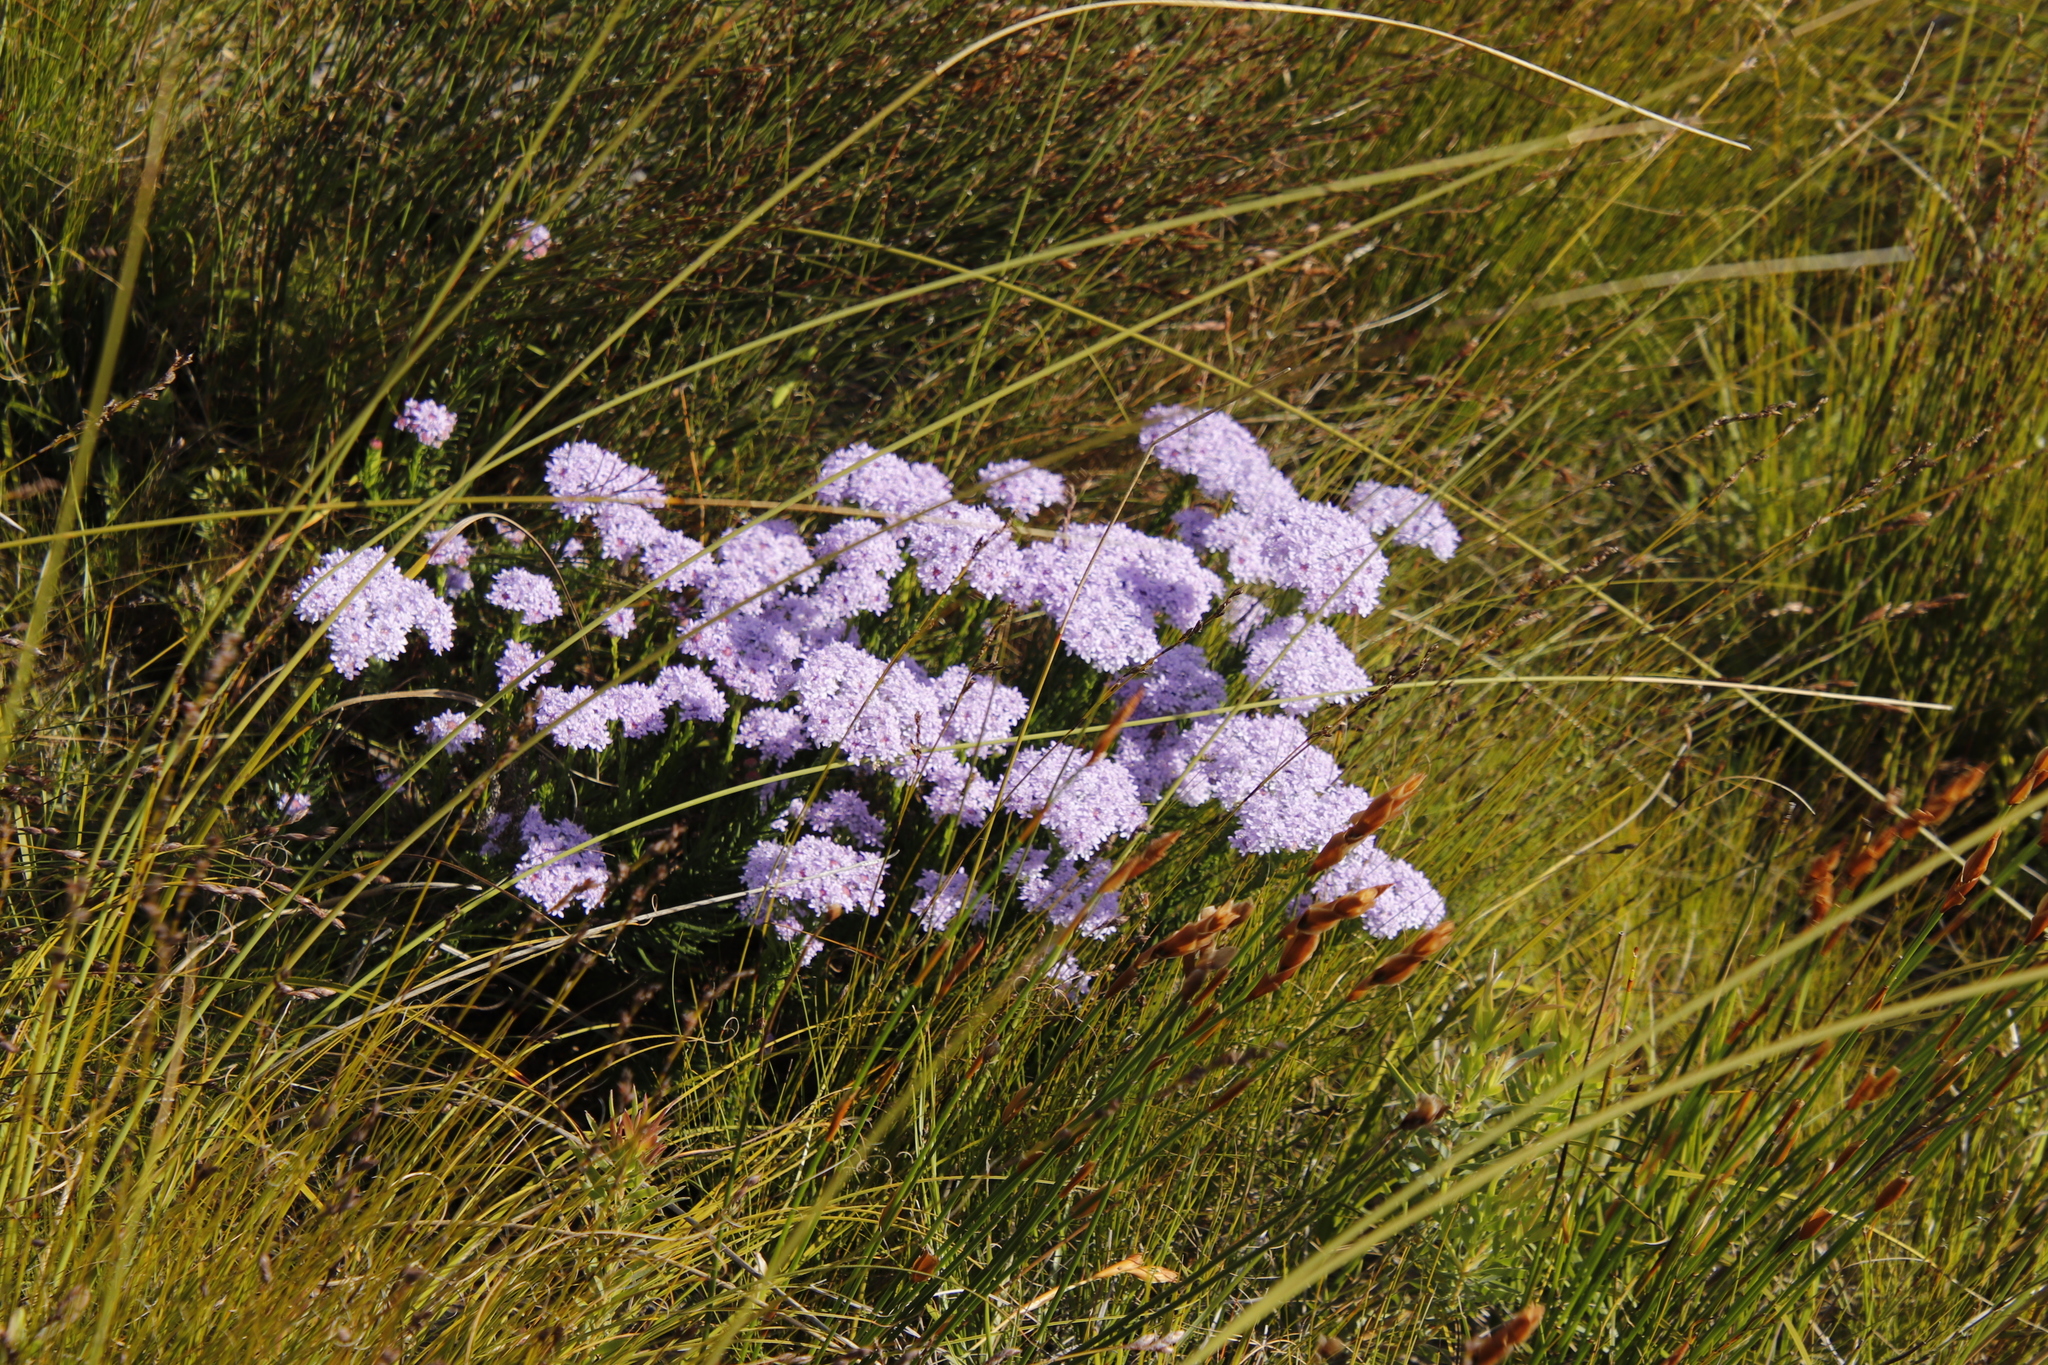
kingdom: Plantae
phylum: Tracheophyta
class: Magnoliopsida
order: Lamiales
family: Scrophulariaceae
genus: Pseudoselago
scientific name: Pseudoselago spuria
